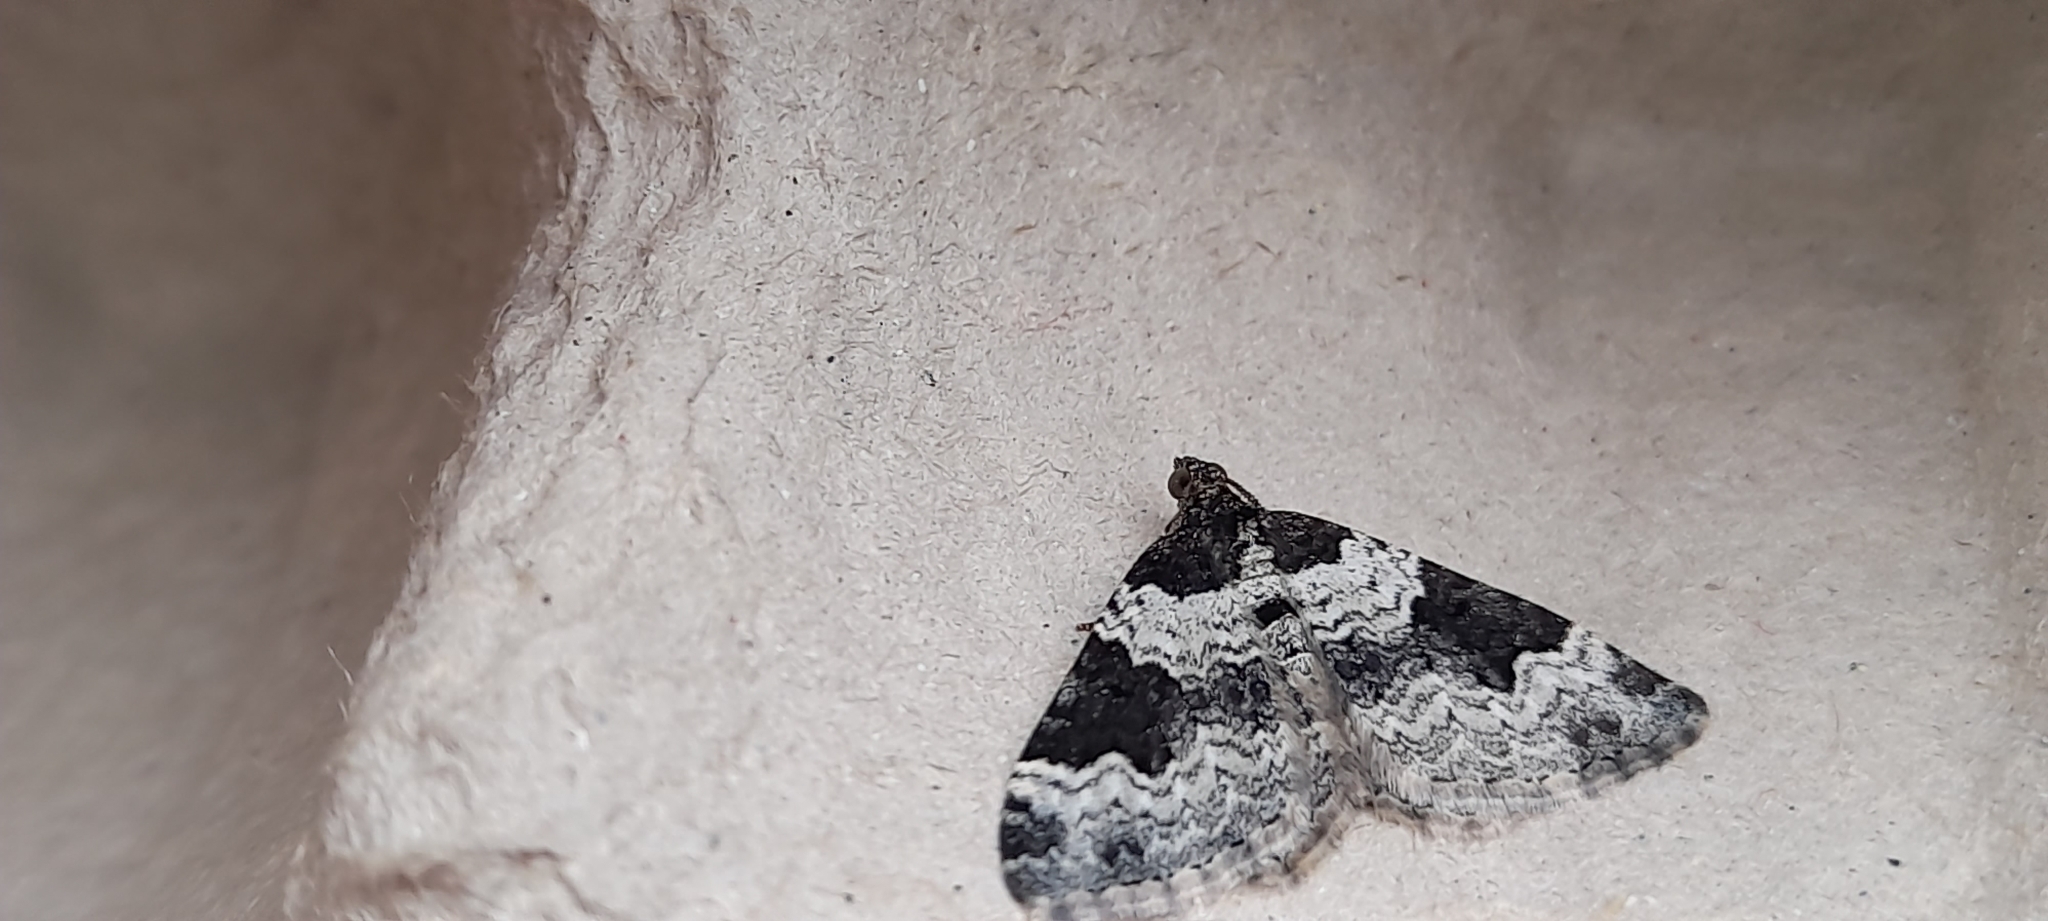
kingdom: Animalia
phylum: Arthropoda
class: Insecta
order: Lepidoptera
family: Geometridae
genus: Xanthorhoe
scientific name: Xanthorhoe fluctuata
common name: Garden carpet
